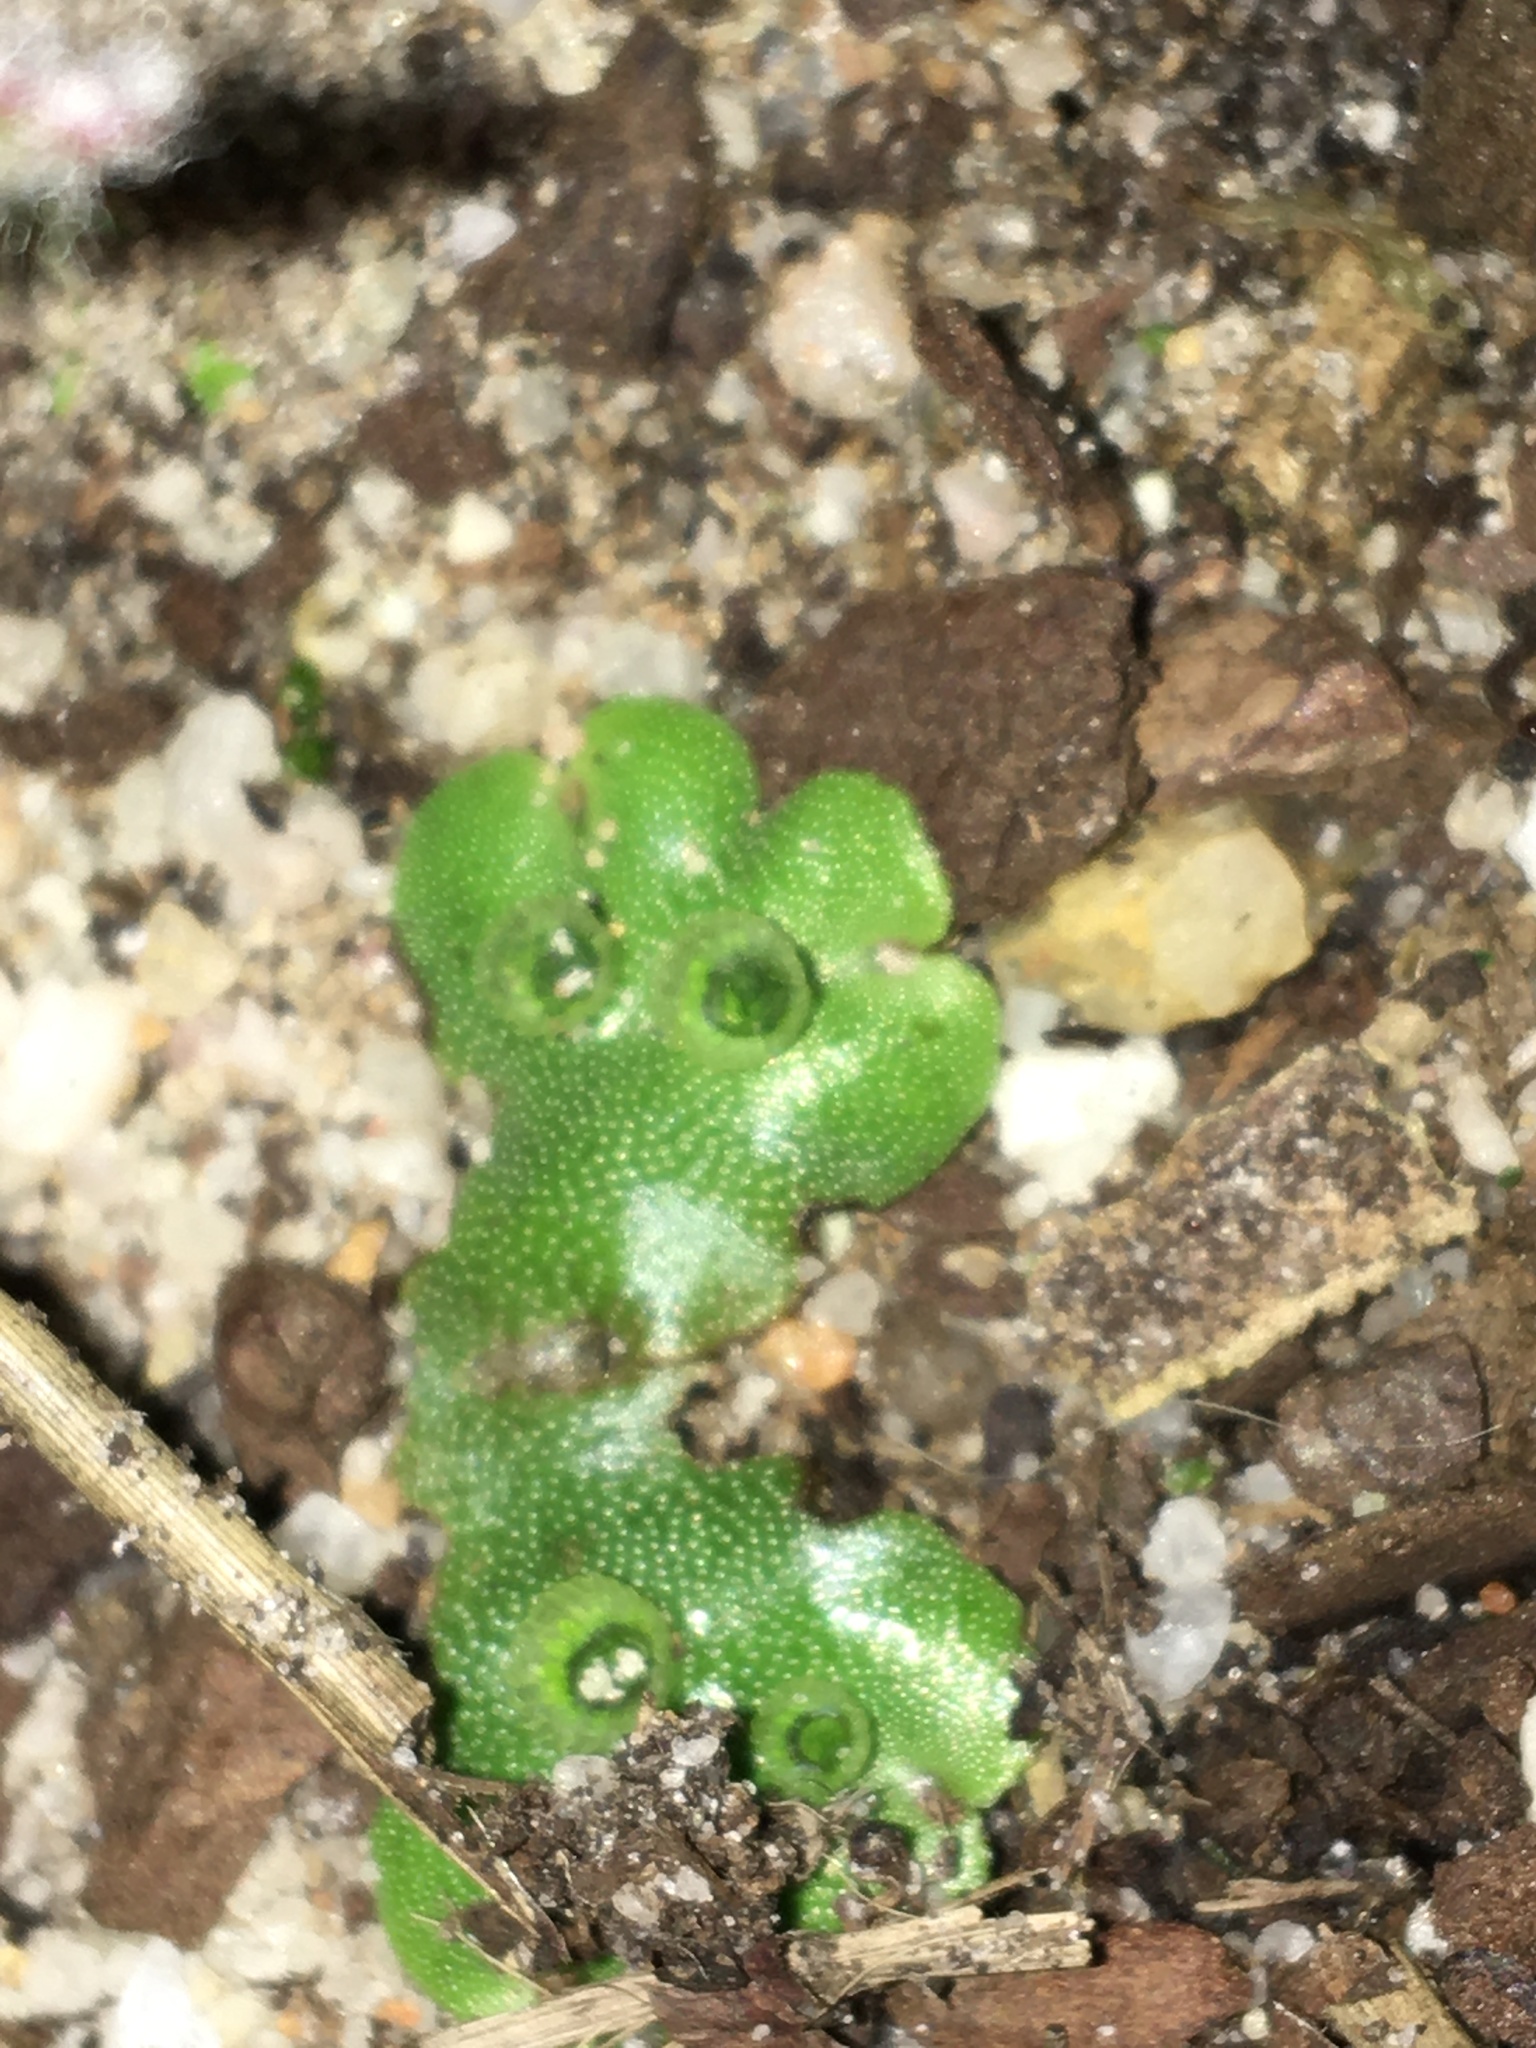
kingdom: Plantae
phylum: Marchantiophyta
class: Marchantiopsida
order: Marchantiales
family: Marchantiaceae
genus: Marchantia
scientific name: Marchantia
